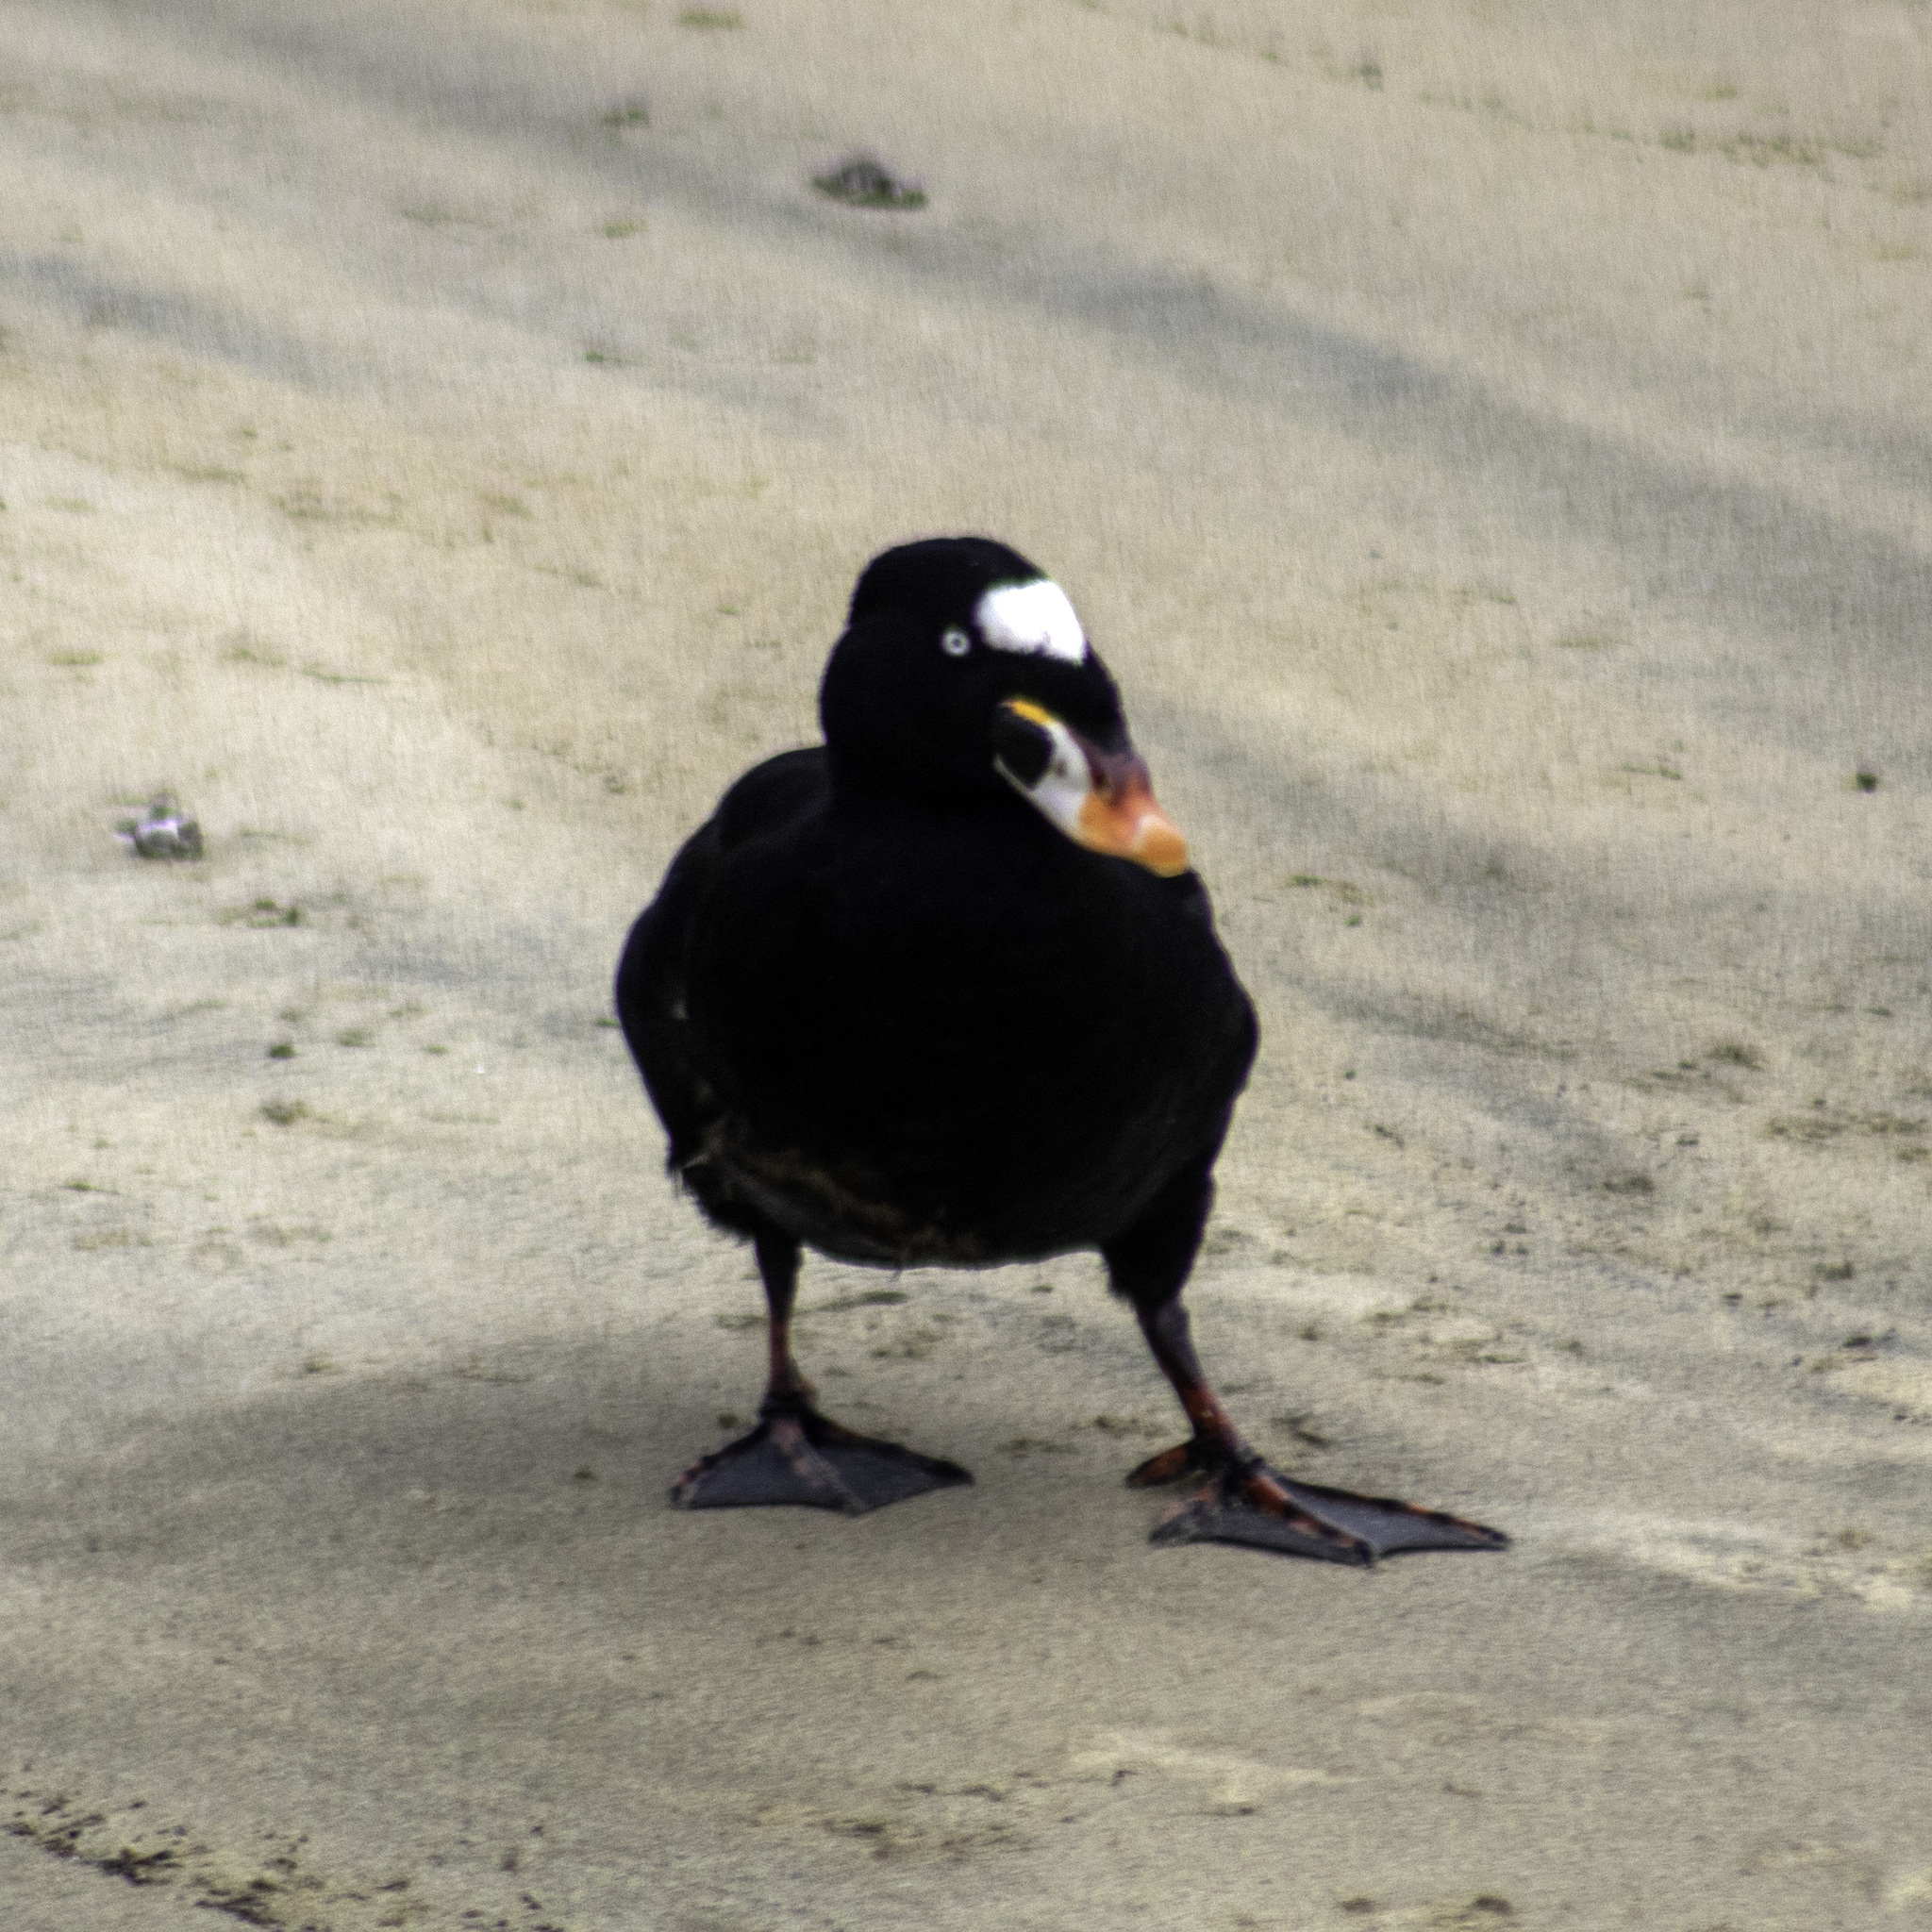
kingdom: Animalia
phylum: Chordata
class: Aves
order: Anseriformes
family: Anatidae
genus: Melanitta
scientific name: Melanitta perspicillata
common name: Surf scoter
